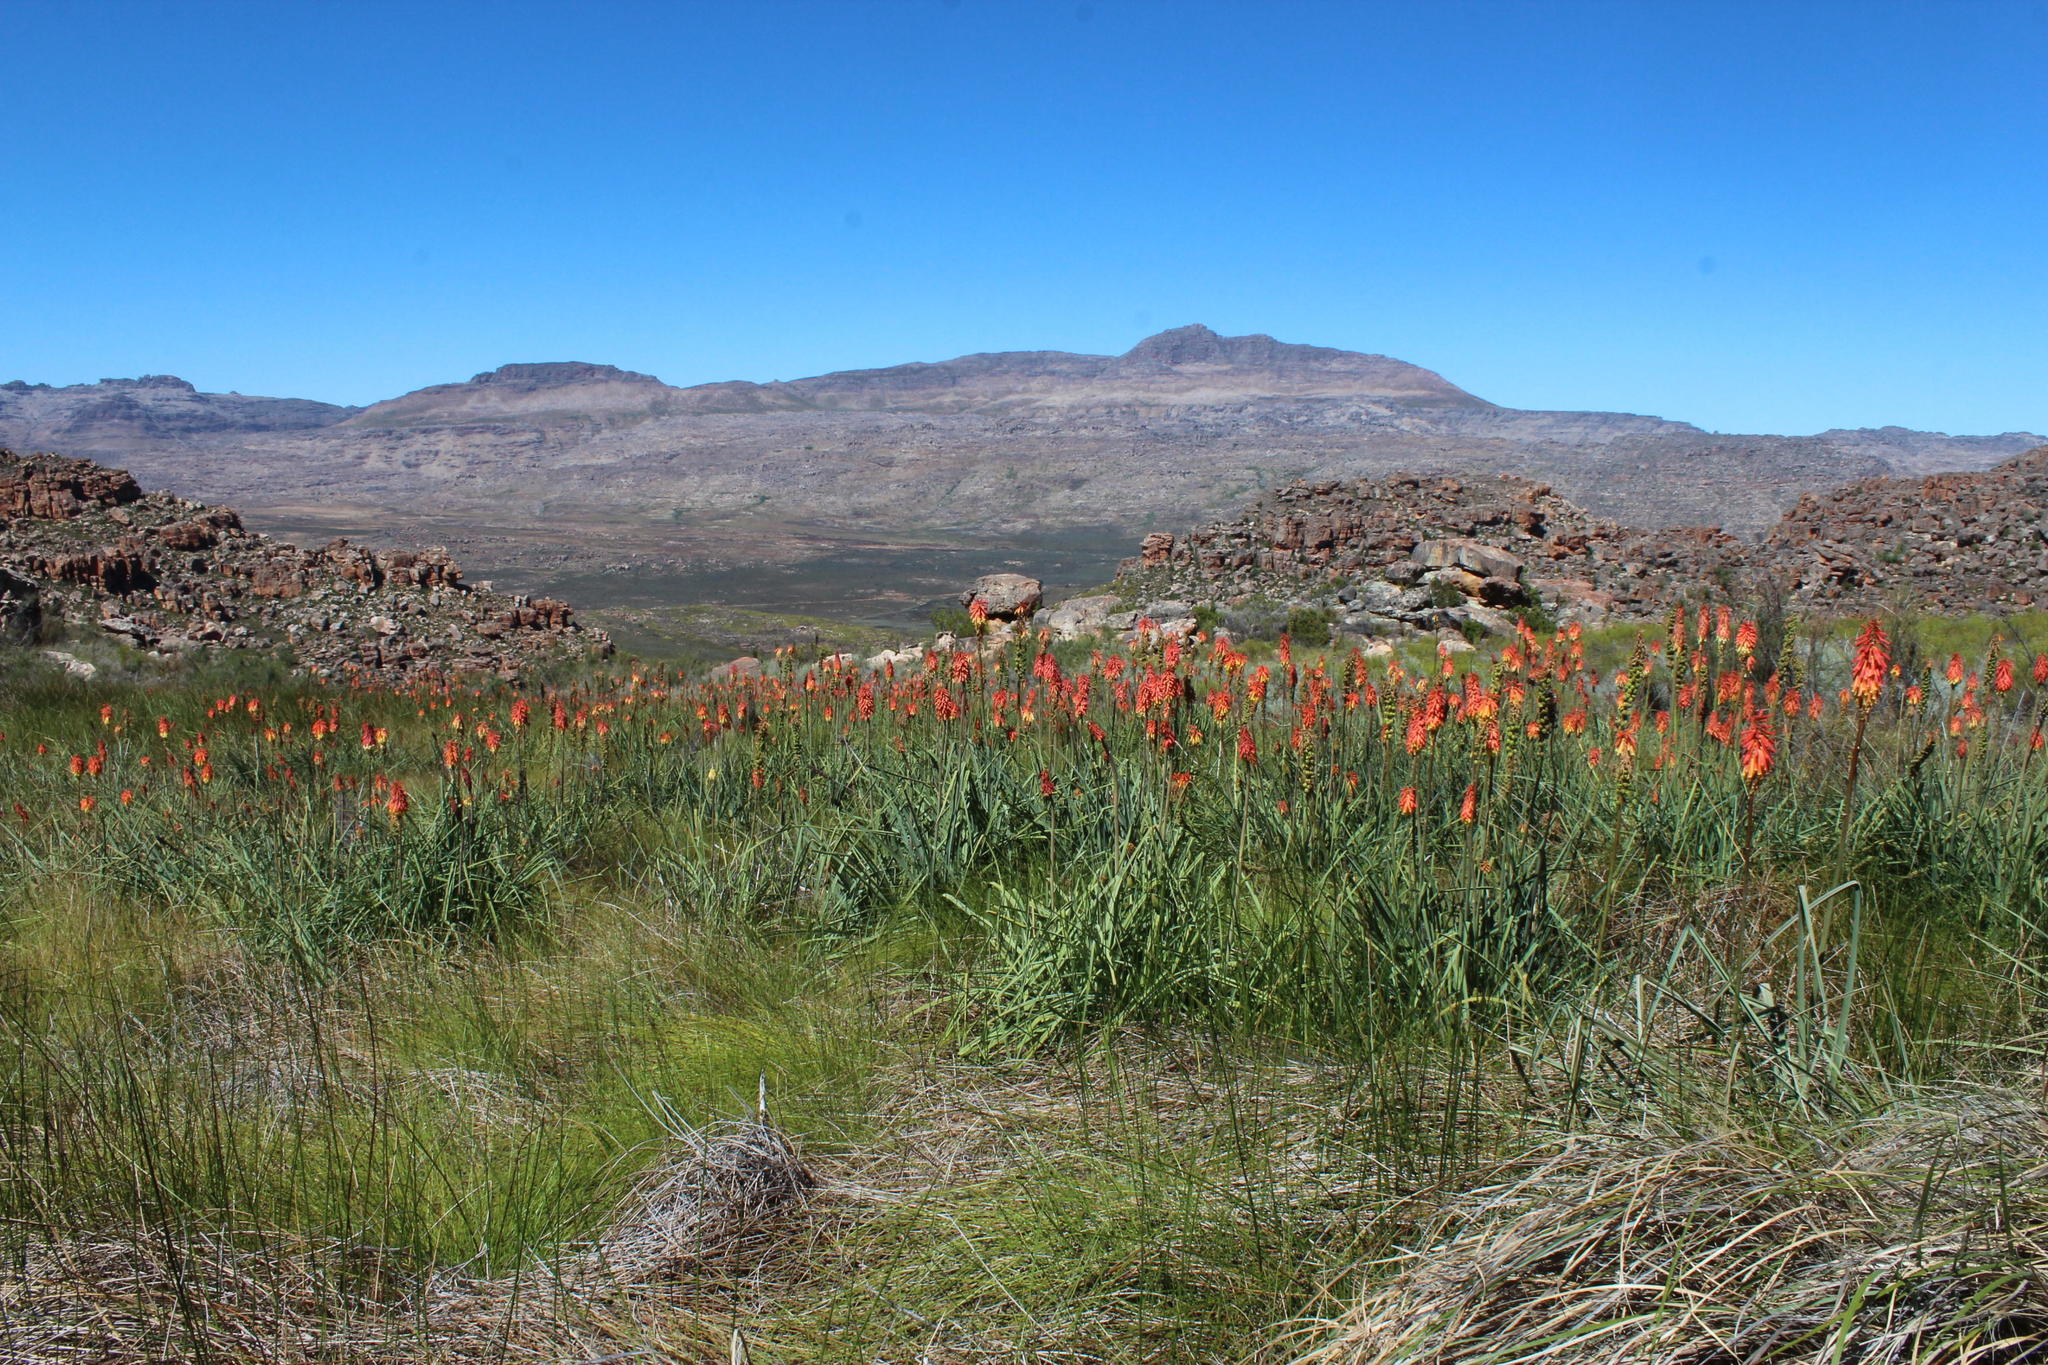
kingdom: Plantae
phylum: Tracheophyta
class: Liliopsida
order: Asparagales
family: Asphodelaceae
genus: Kniphofia
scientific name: Kniphofia uvaria
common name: Red-hot-poker
